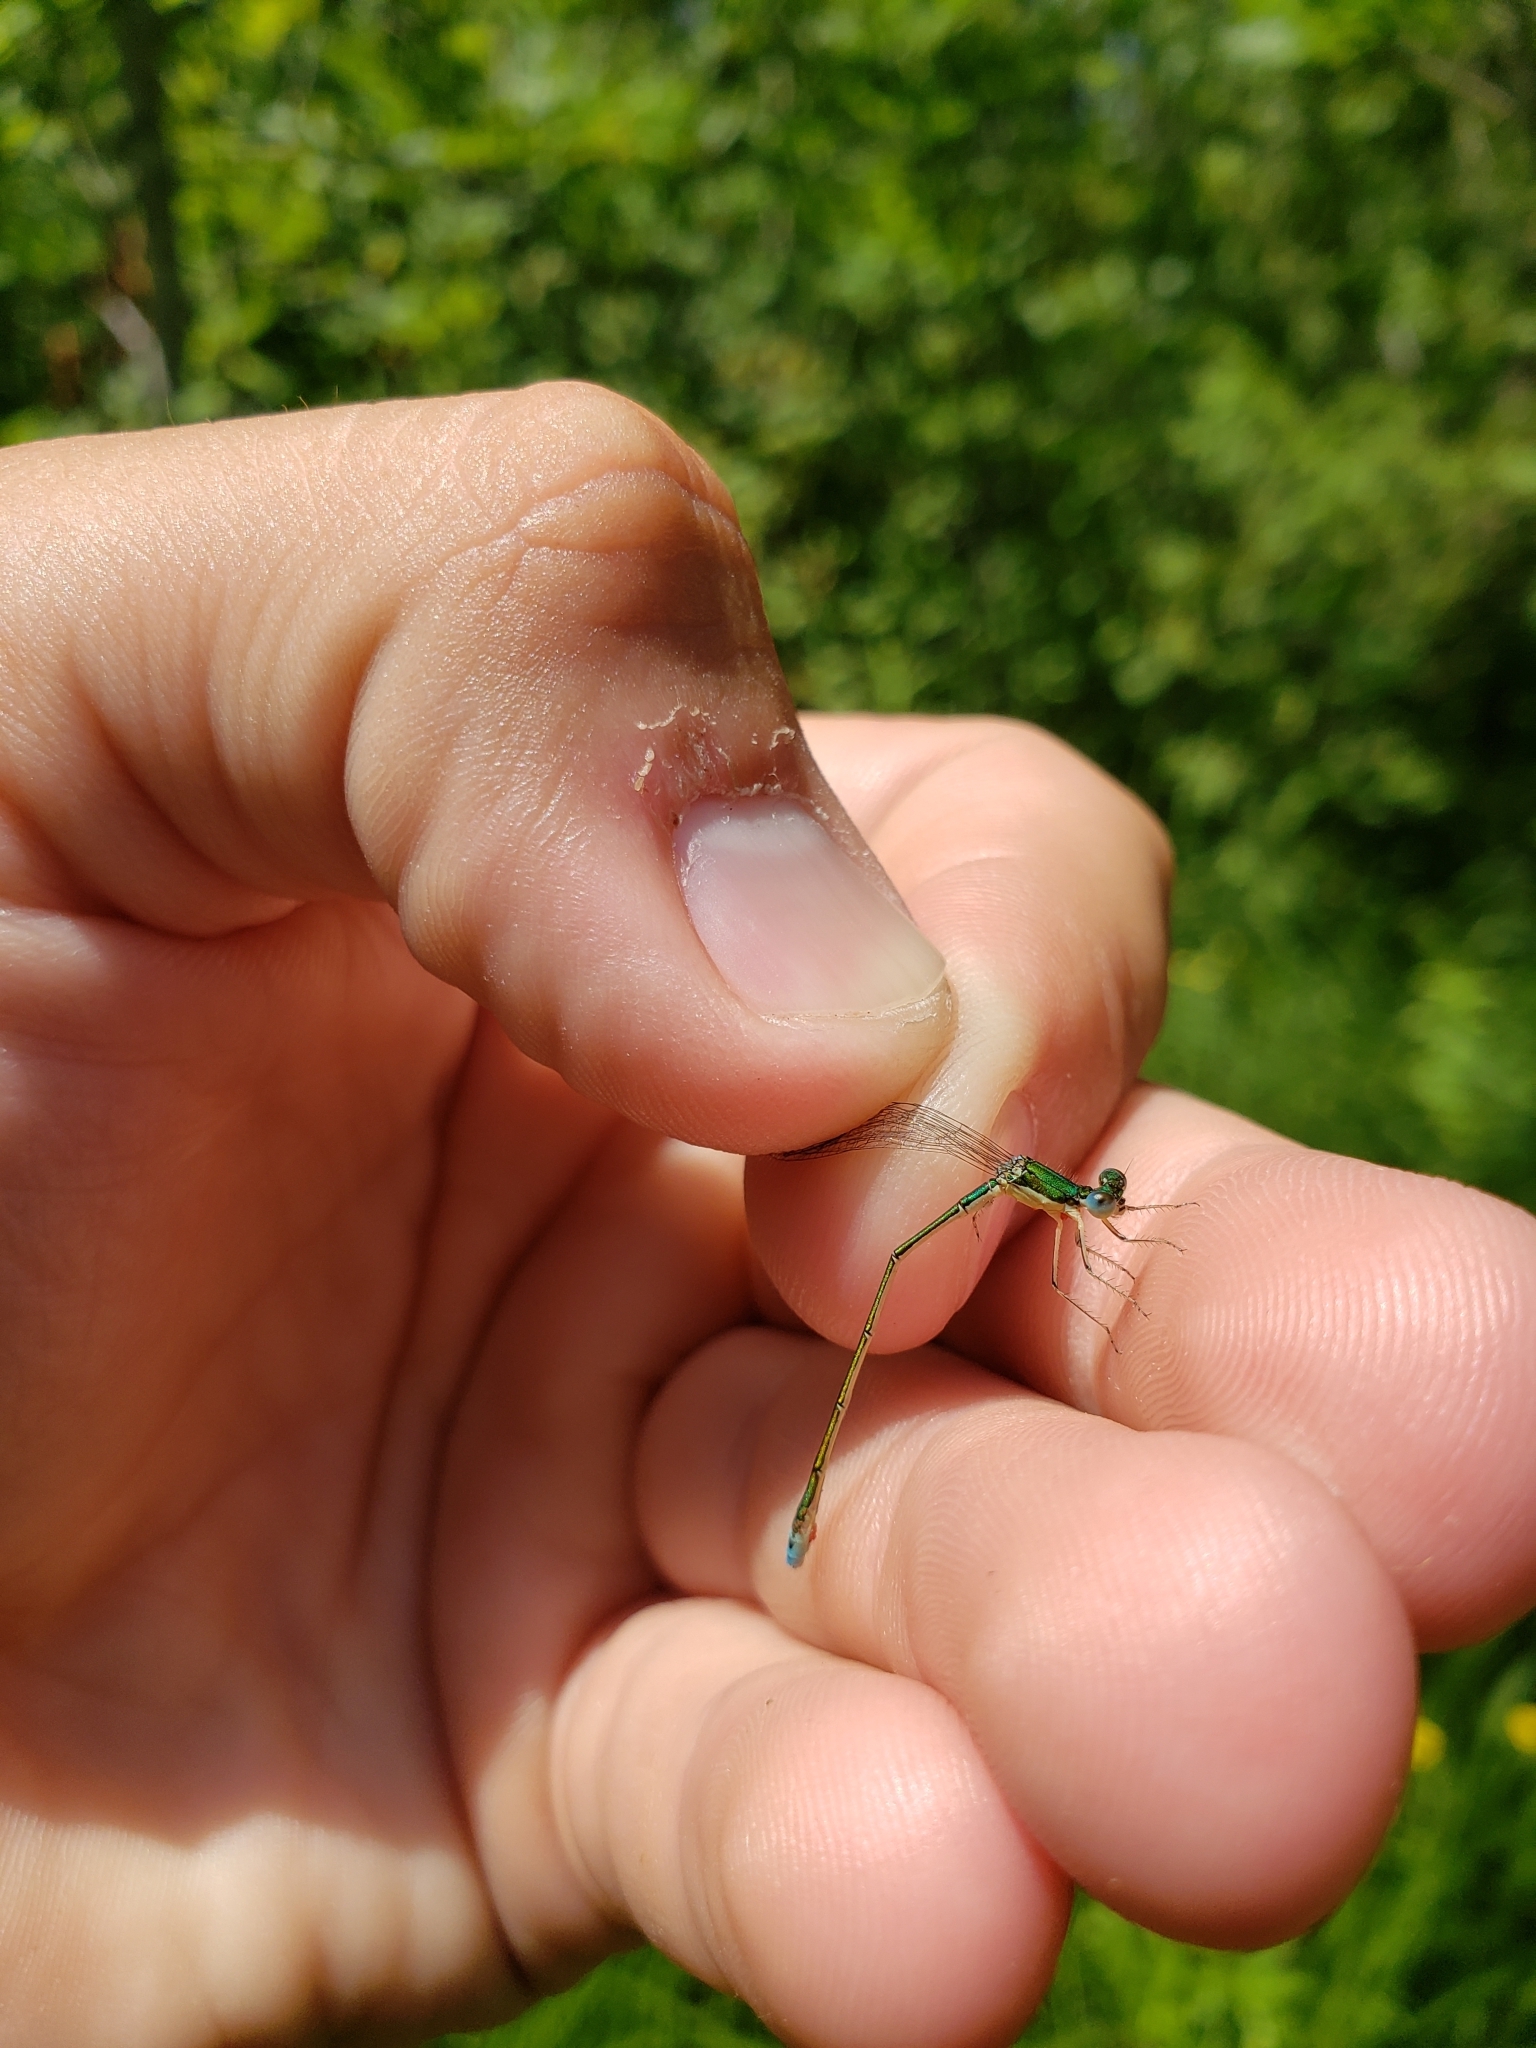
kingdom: Animalia
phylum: Arthropoda
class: Insecta
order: Odonata
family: Coenagrionidae
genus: Nehalennia
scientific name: Nehalennia irene
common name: Sedge sprite
